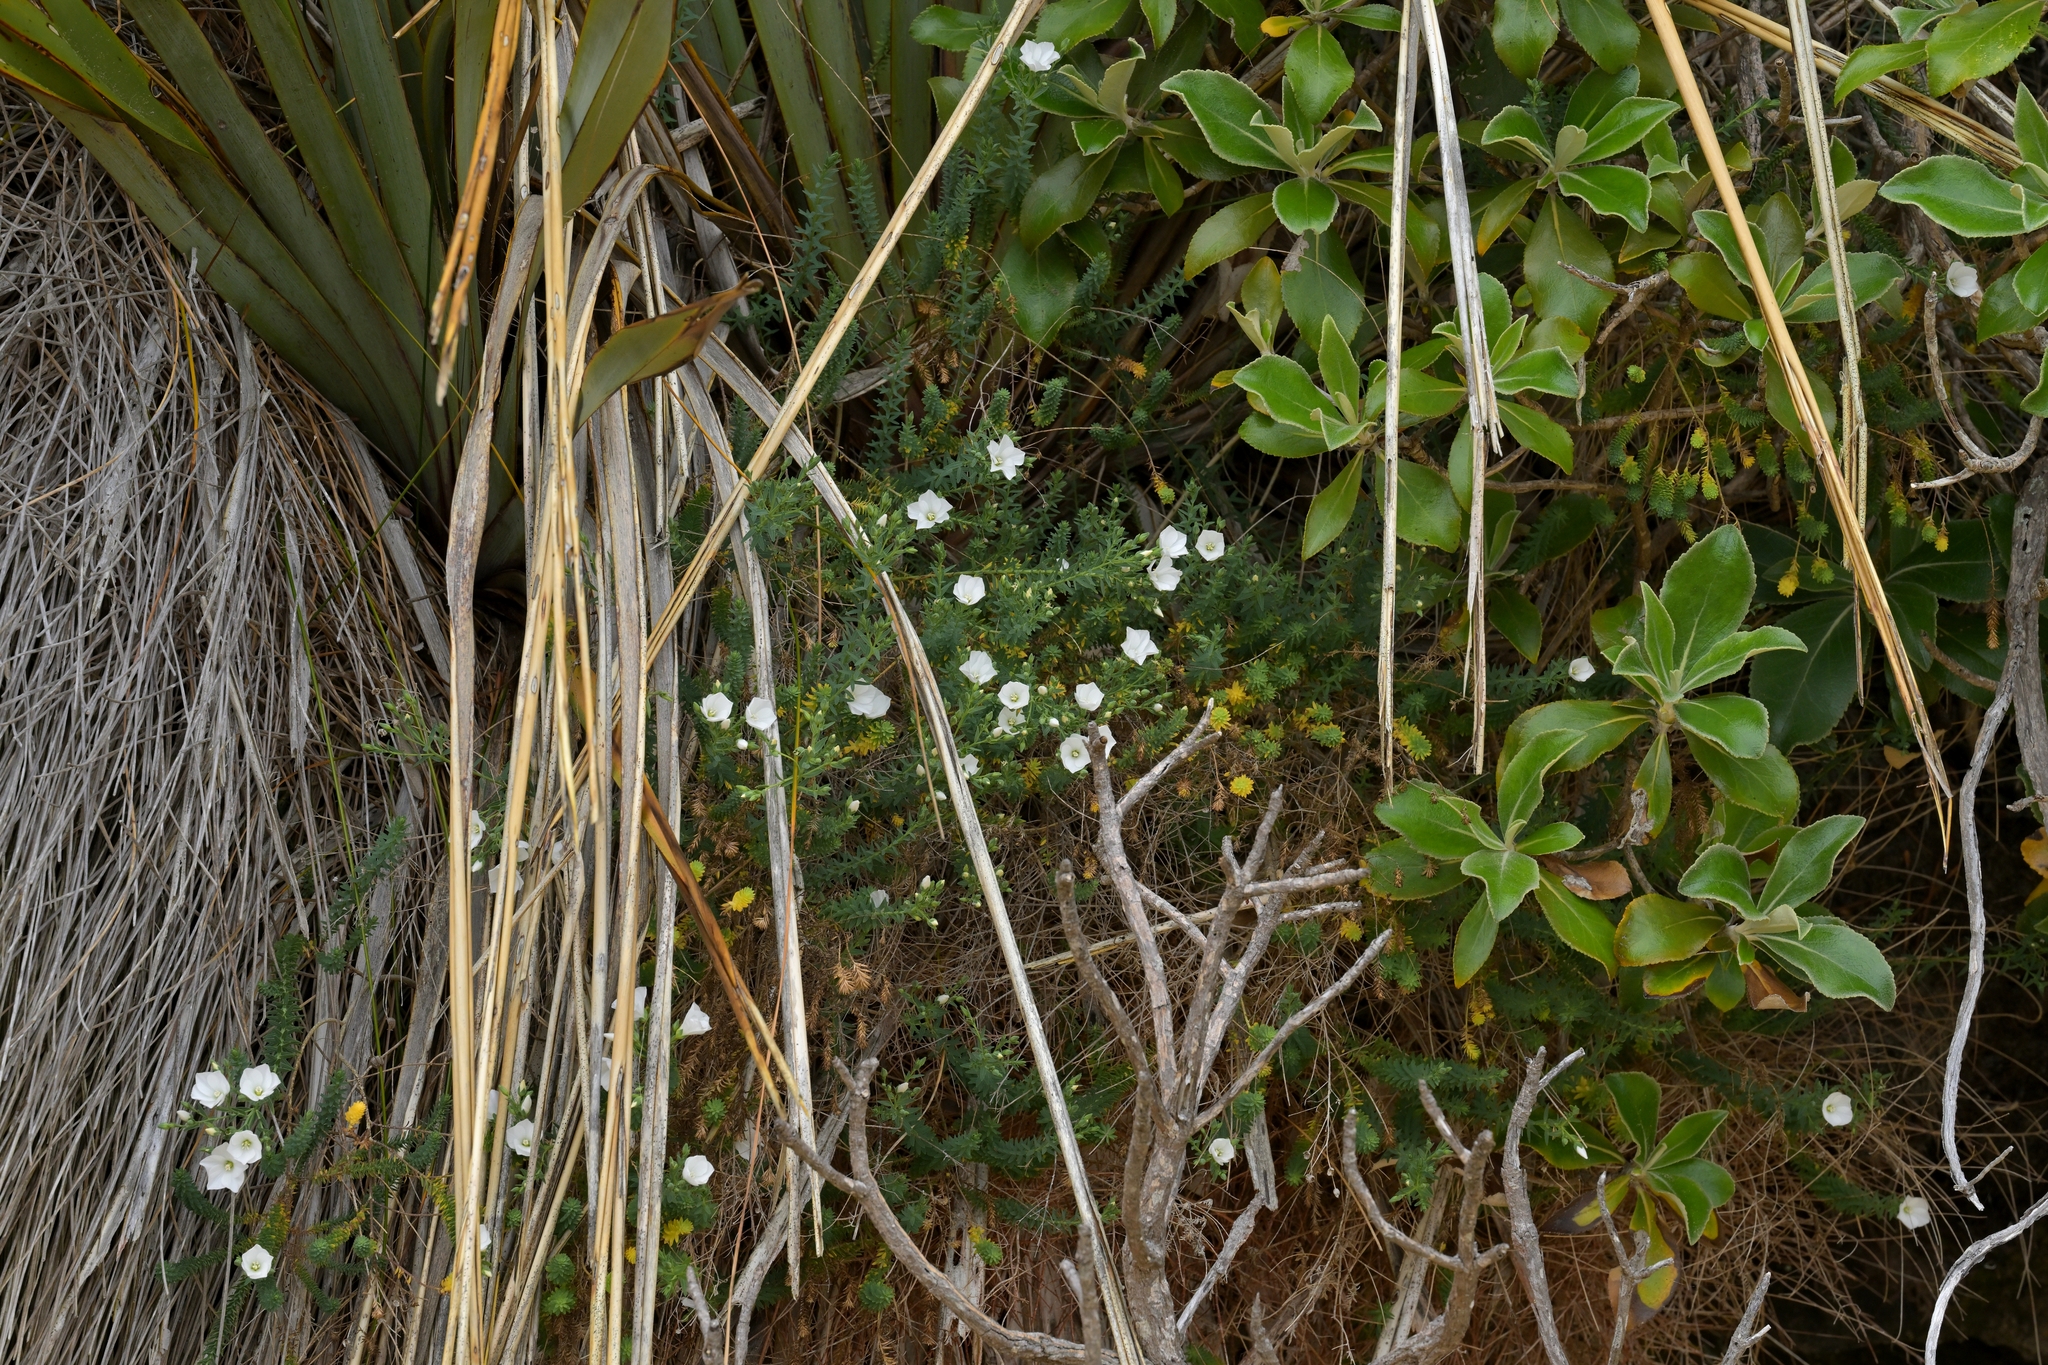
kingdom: Plantae
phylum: Tracheophyta
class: Magnoliopsida
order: Malpighiales
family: Linaceae
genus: Linum
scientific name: Linum monogynum
